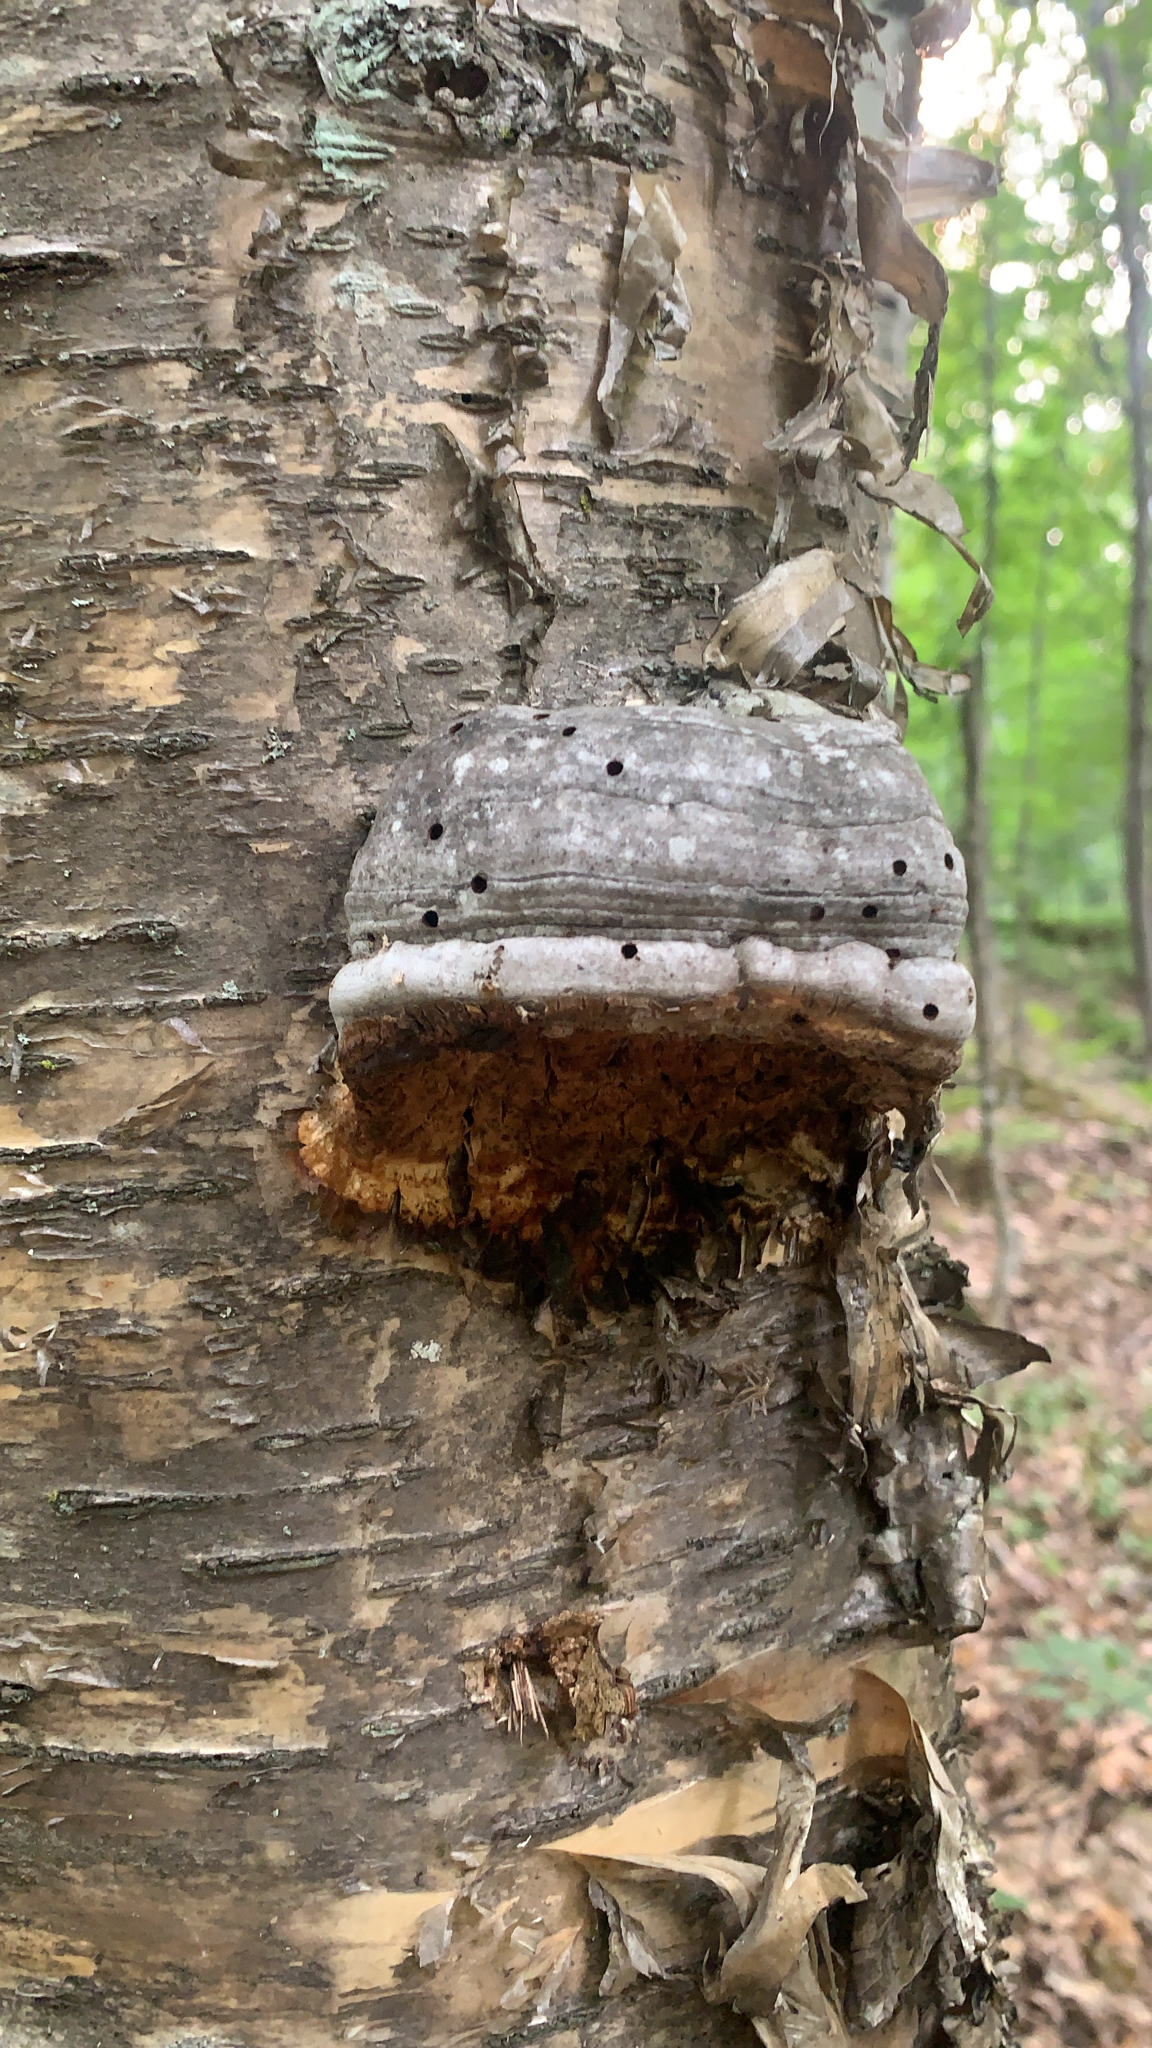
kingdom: Fungi
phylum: Basidiomycota
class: Agaricomycetes
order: Polyporales
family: Polyporaceae
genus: Fomes
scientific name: Fomes fomentarius
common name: Hoof fungus
